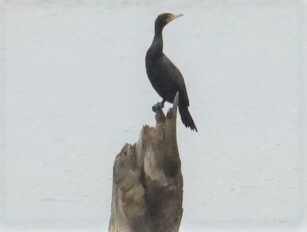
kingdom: Animalia
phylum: Chordata
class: Aves
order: Suliformes
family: Phalacrocoracidae
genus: Phalacrocorax
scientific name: Phalacrocorax auritus
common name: Double-crested cormorant
